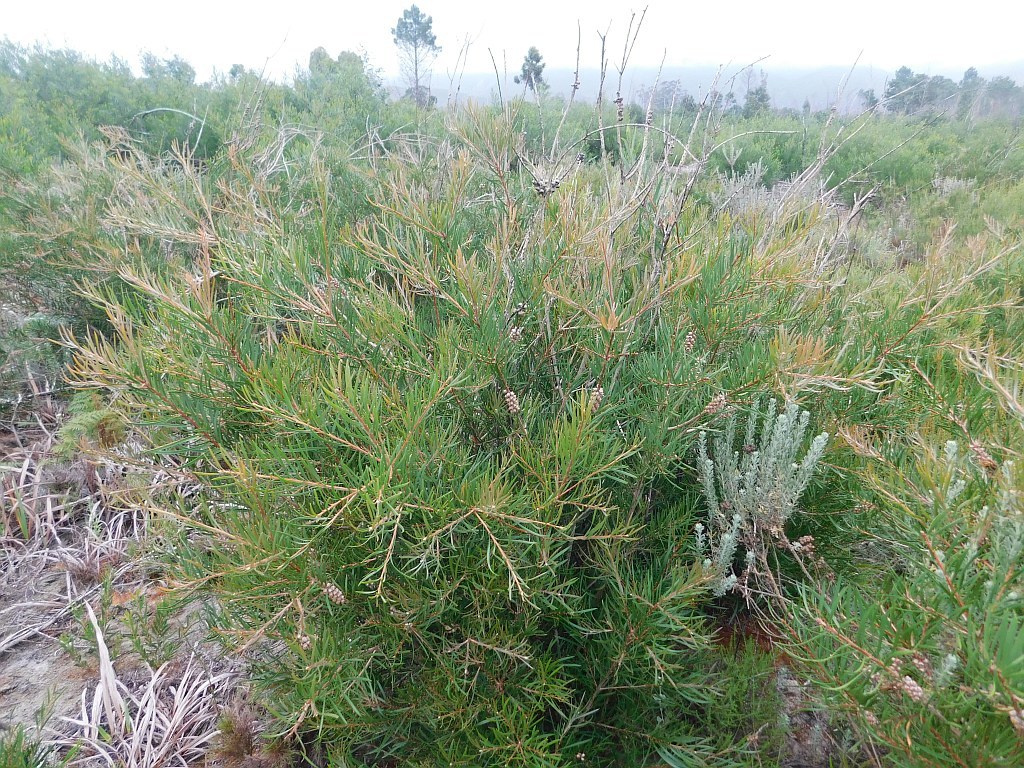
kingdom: Plantae
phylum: Tracheophyta
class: Magnoliopsida
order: Myrtales
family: Myrtaceae
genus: Callistemon
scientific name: Callistemon linearis
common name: Narrow-leaf bottlebrush
